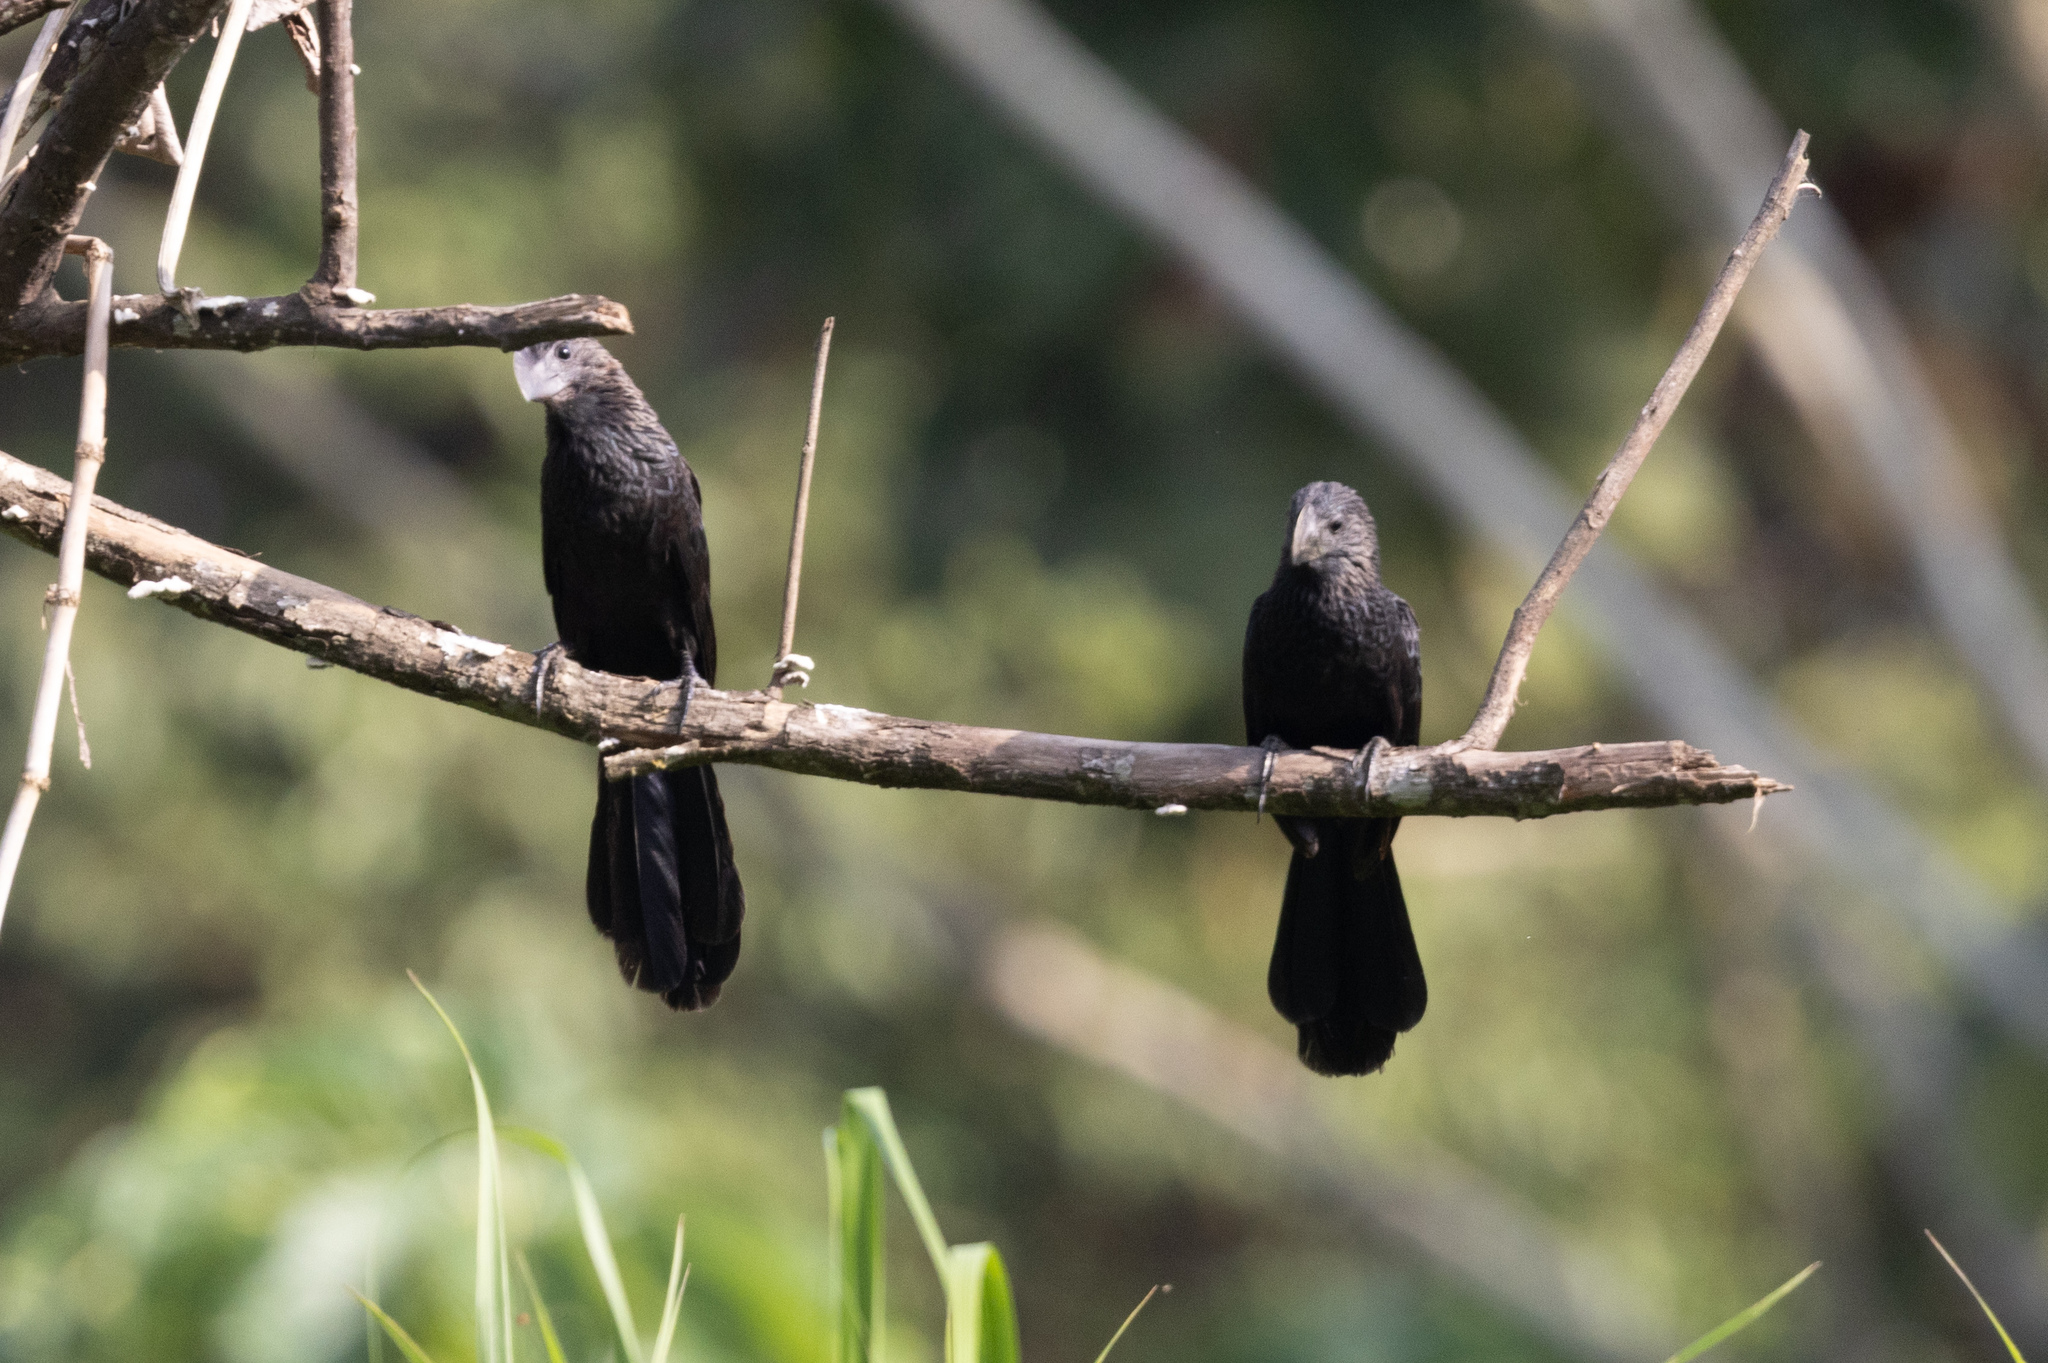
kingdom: Animalia
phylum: Chordata
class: Aves
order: Cuculiformes
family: Cuculidae
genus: Crotophaga
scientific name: Crotophaga ani
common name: Smooth-billed ani
